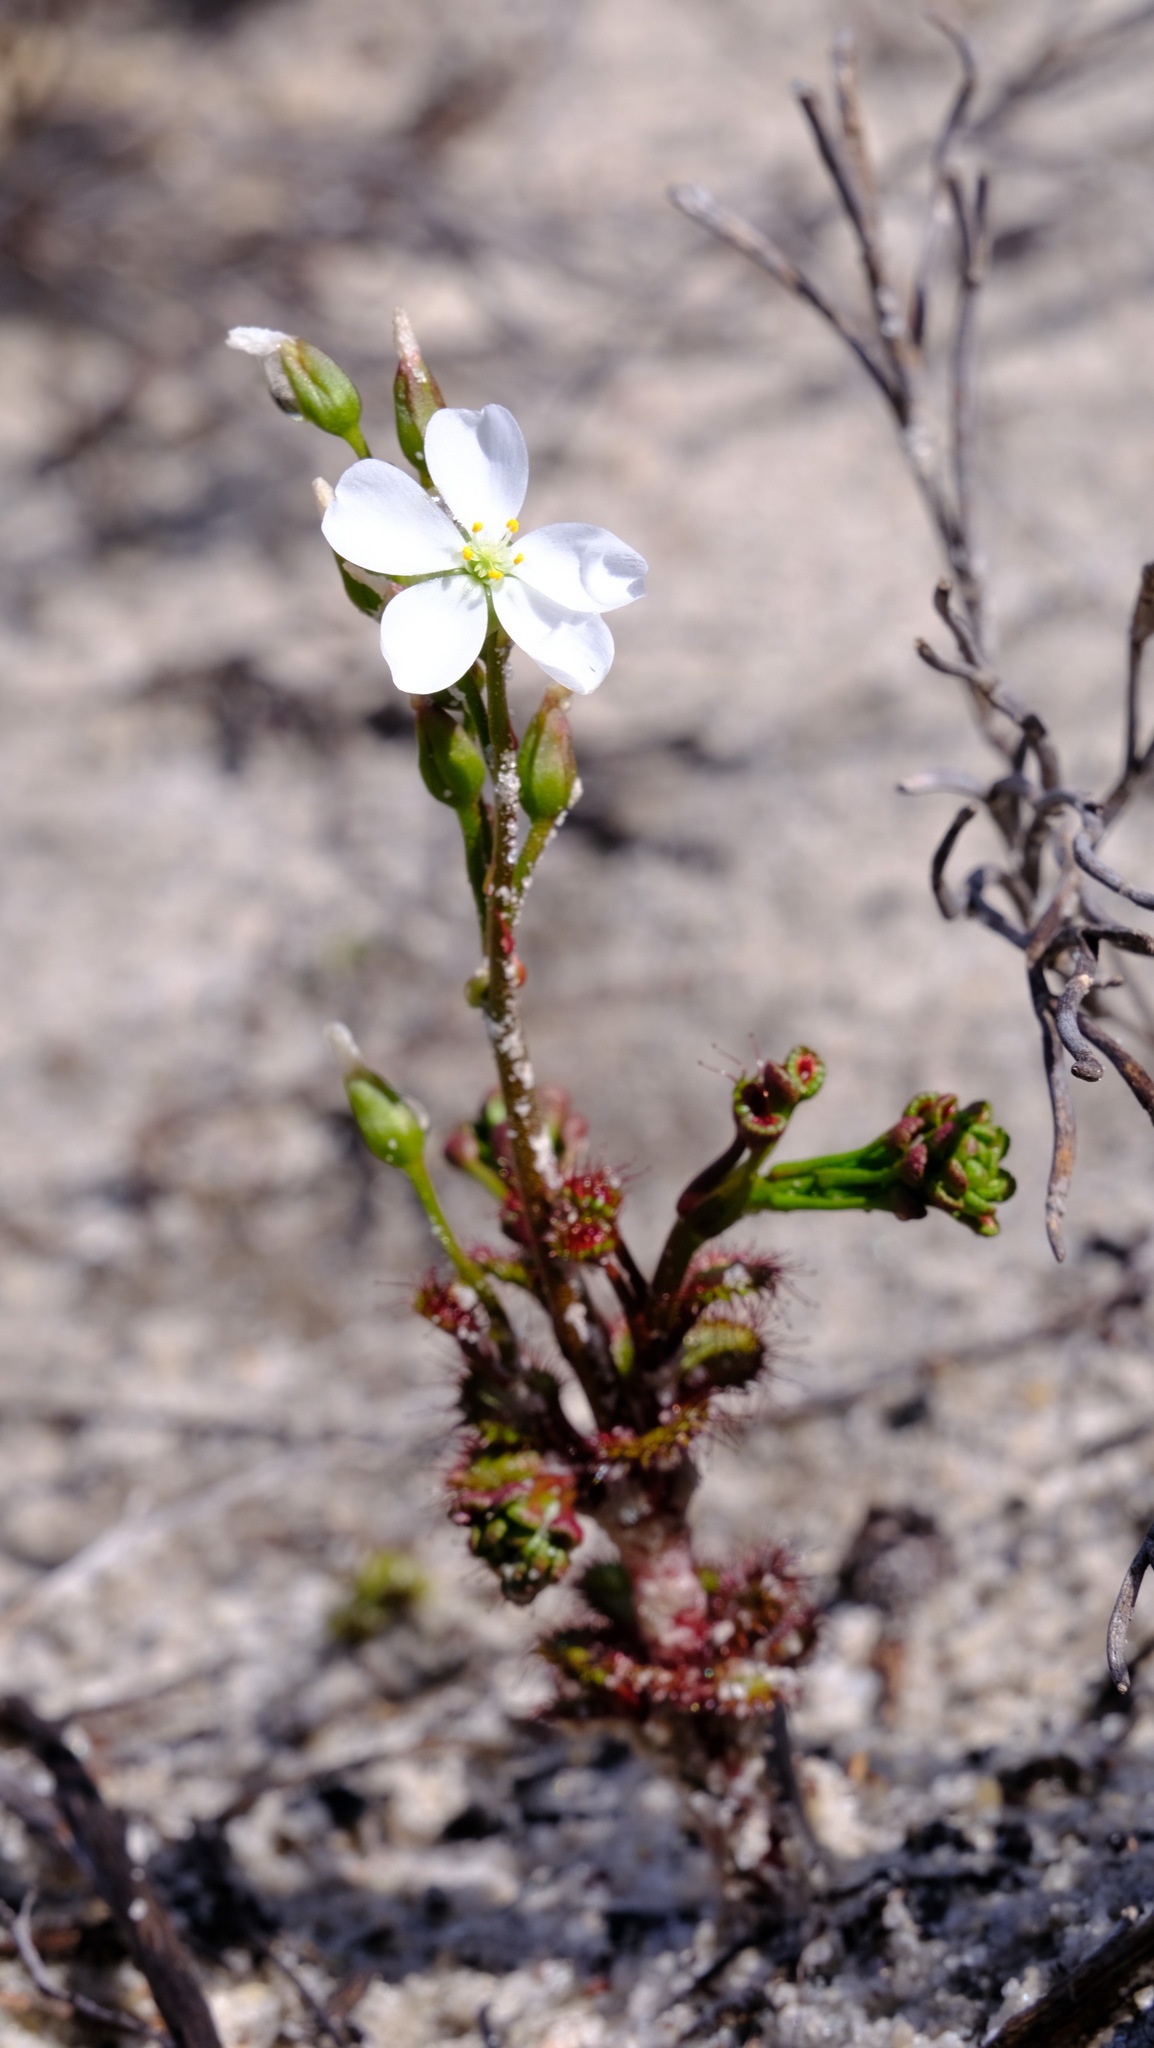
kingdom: Plantae
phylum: Tracheophyta
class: Magnoliopsida
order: Caryophyllales
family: Droseraceae
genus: Drosera
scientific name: Drosera stolonifera
